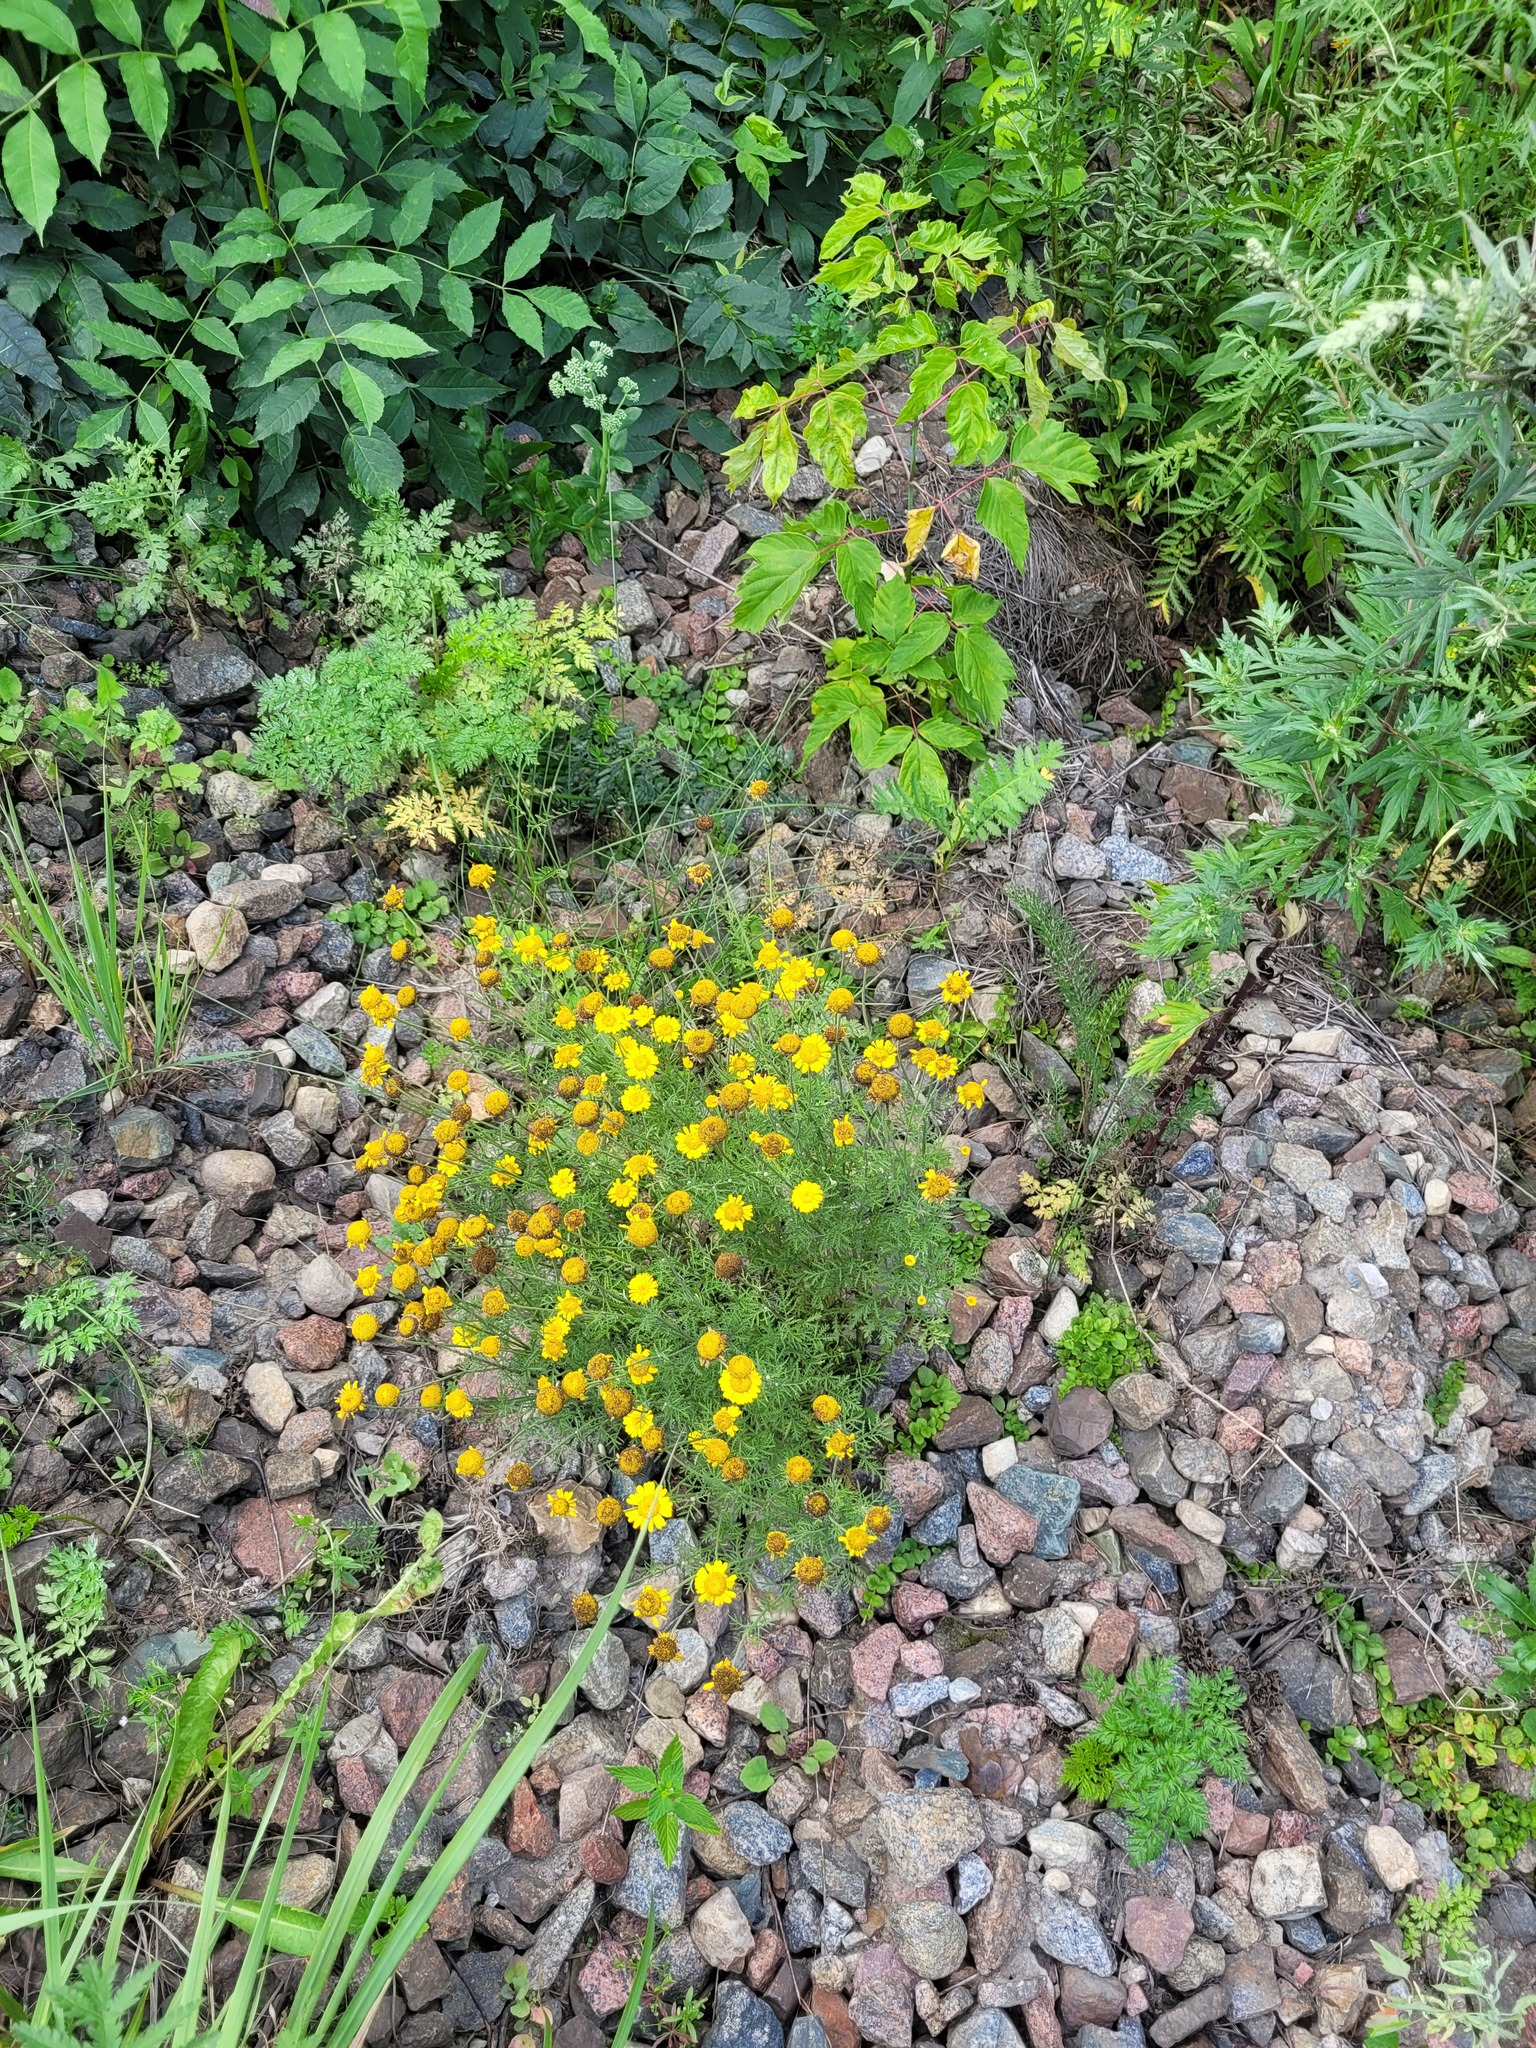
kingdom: Plantae
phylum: Tracheophyta
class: Magnoliopsida
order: Asterales
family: Asteraceae
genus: Cota
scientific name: Cota tinctoria
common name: Golden chamomile
